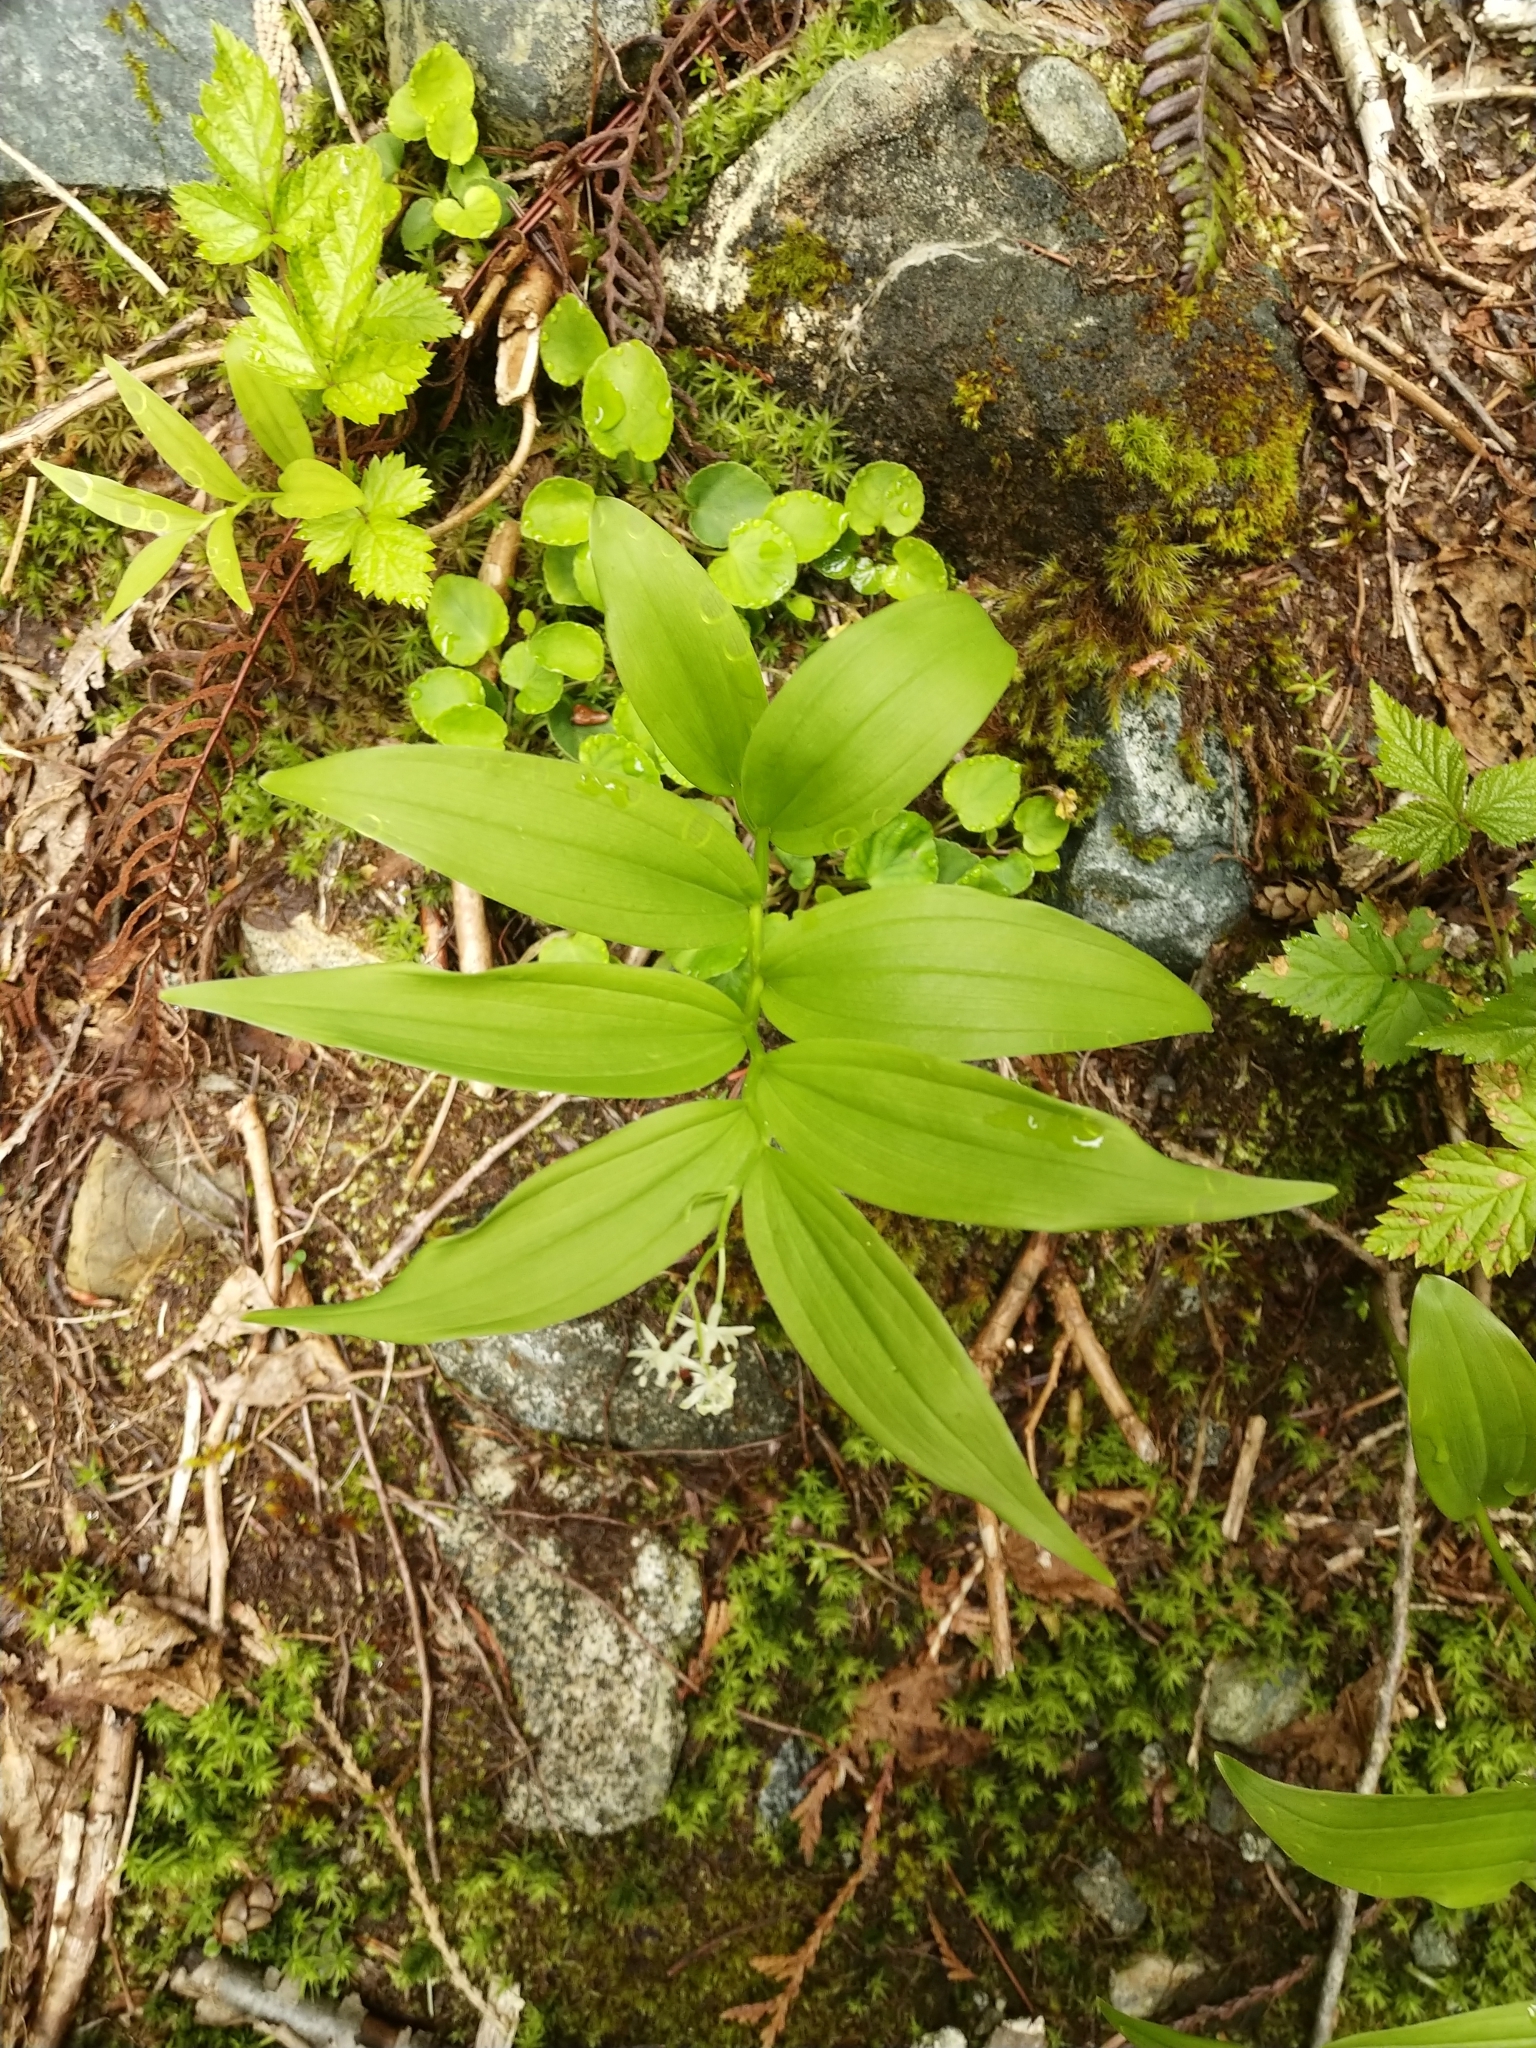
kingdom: Plantae
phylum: Tracheophyta
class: Liliopsida
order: Asparagales
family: Asparagaceae
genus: Maianthemum
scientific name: Maianthemum stellatum
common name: Little false solomon's seal
